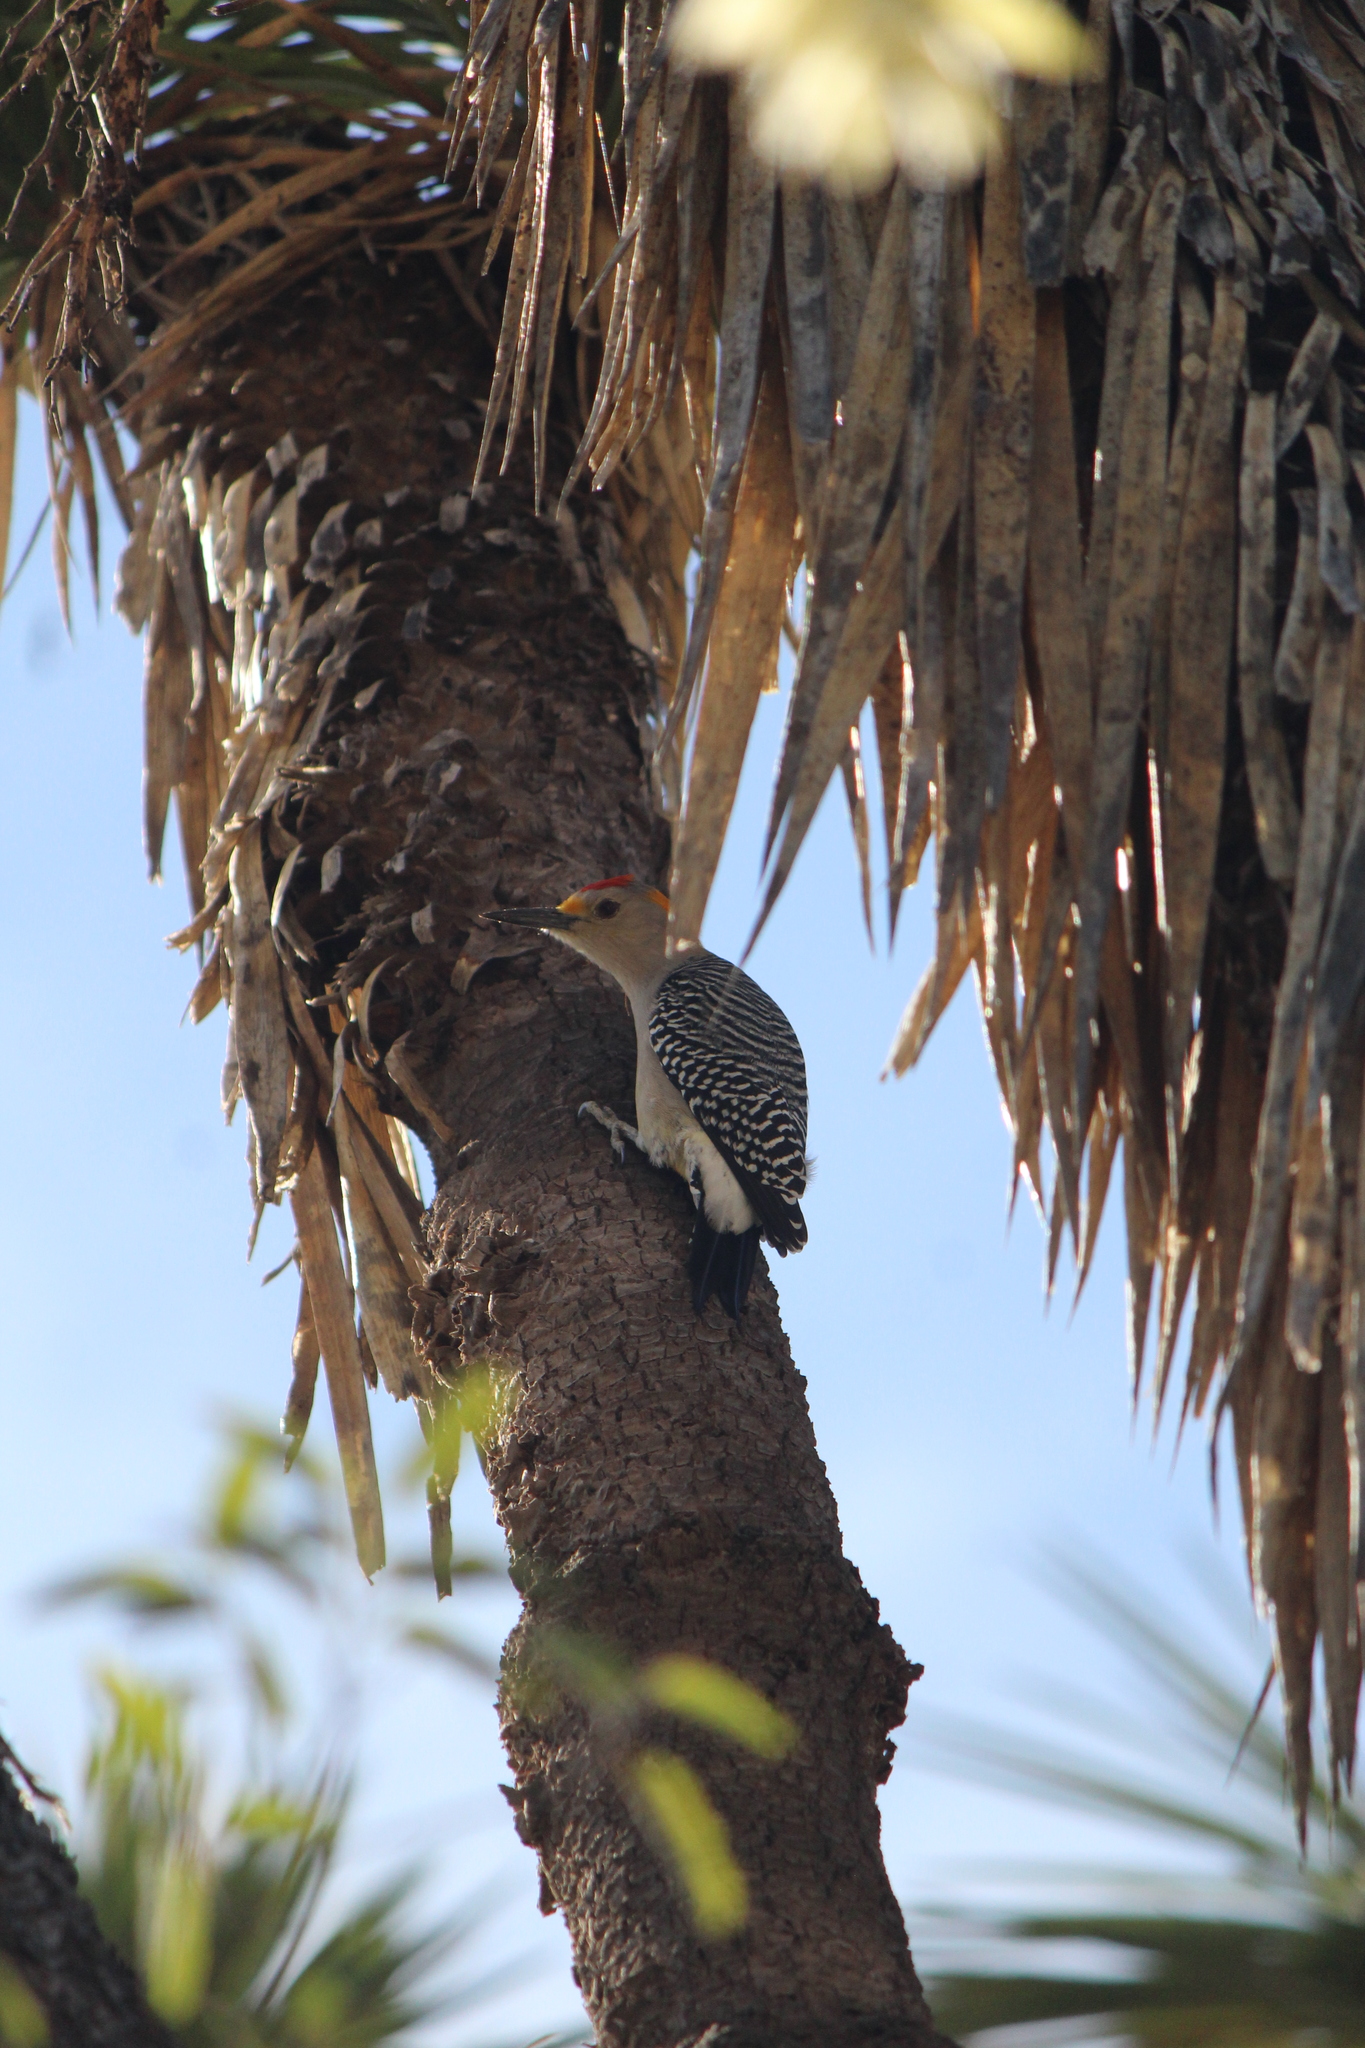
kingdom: Animalia
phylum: Chordata
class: Aves
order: Piciformes
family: Picidae
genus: Melanerpes
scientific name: Melanerpes aurifrons
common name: Golden-fronted woodpecker
